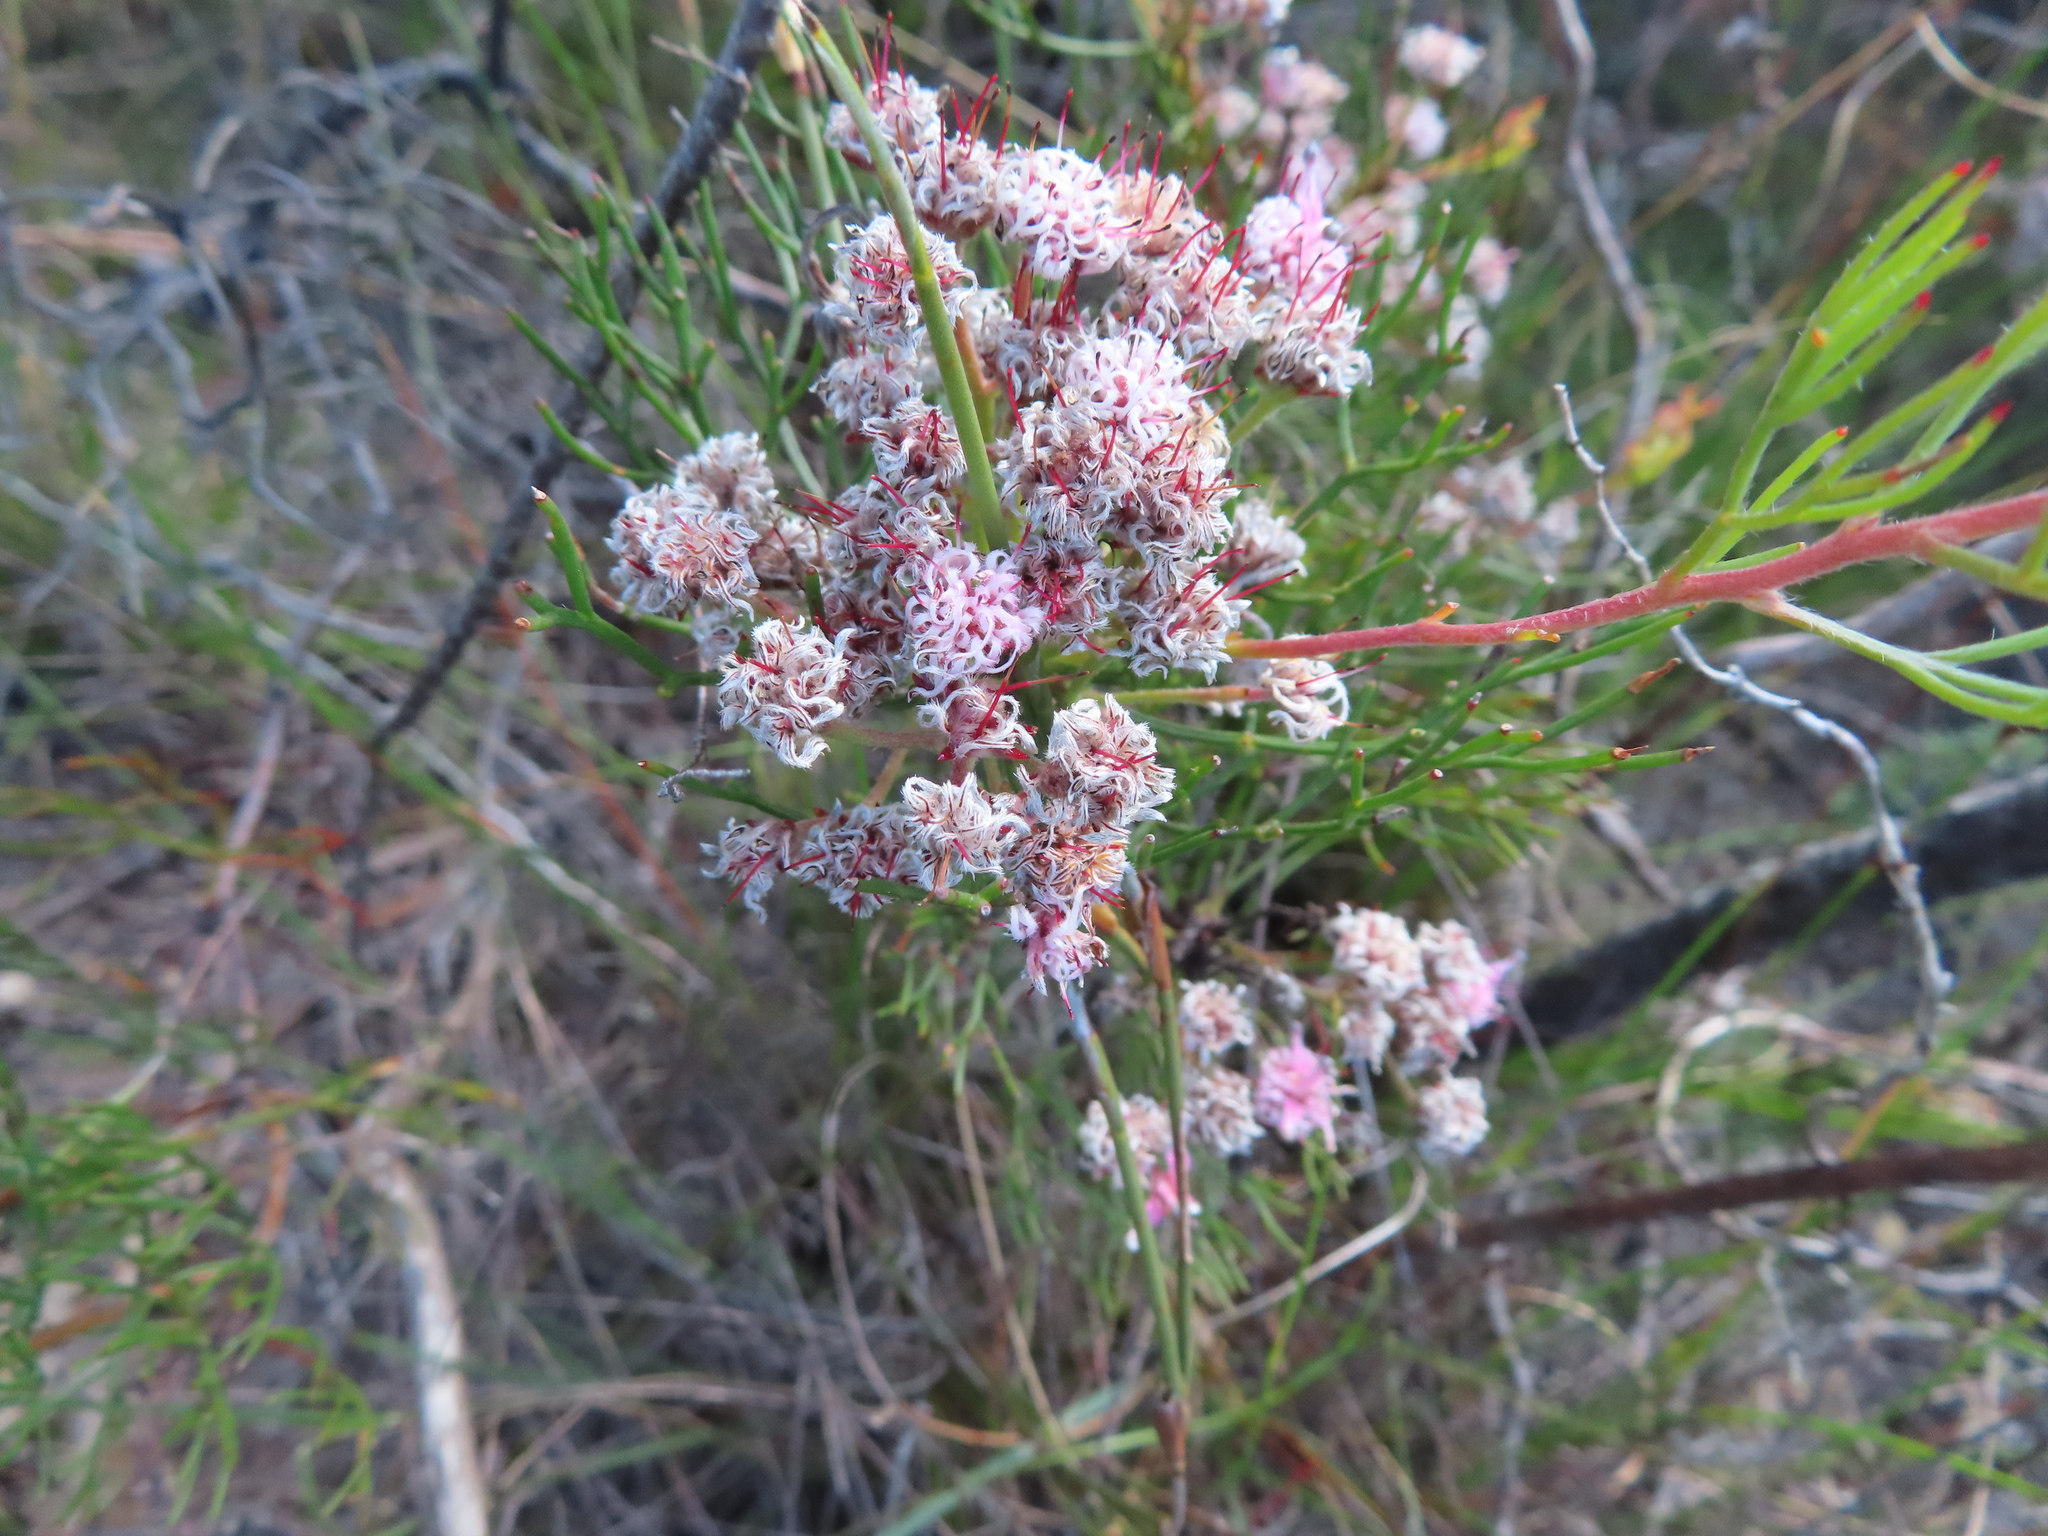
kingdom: Plantae
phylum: Tracheophyta
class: Magnoliopsida
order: Proteales
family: Proteaceae
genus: Serruria
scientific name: Serruria fasciflora
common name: Common pin spiderhead
